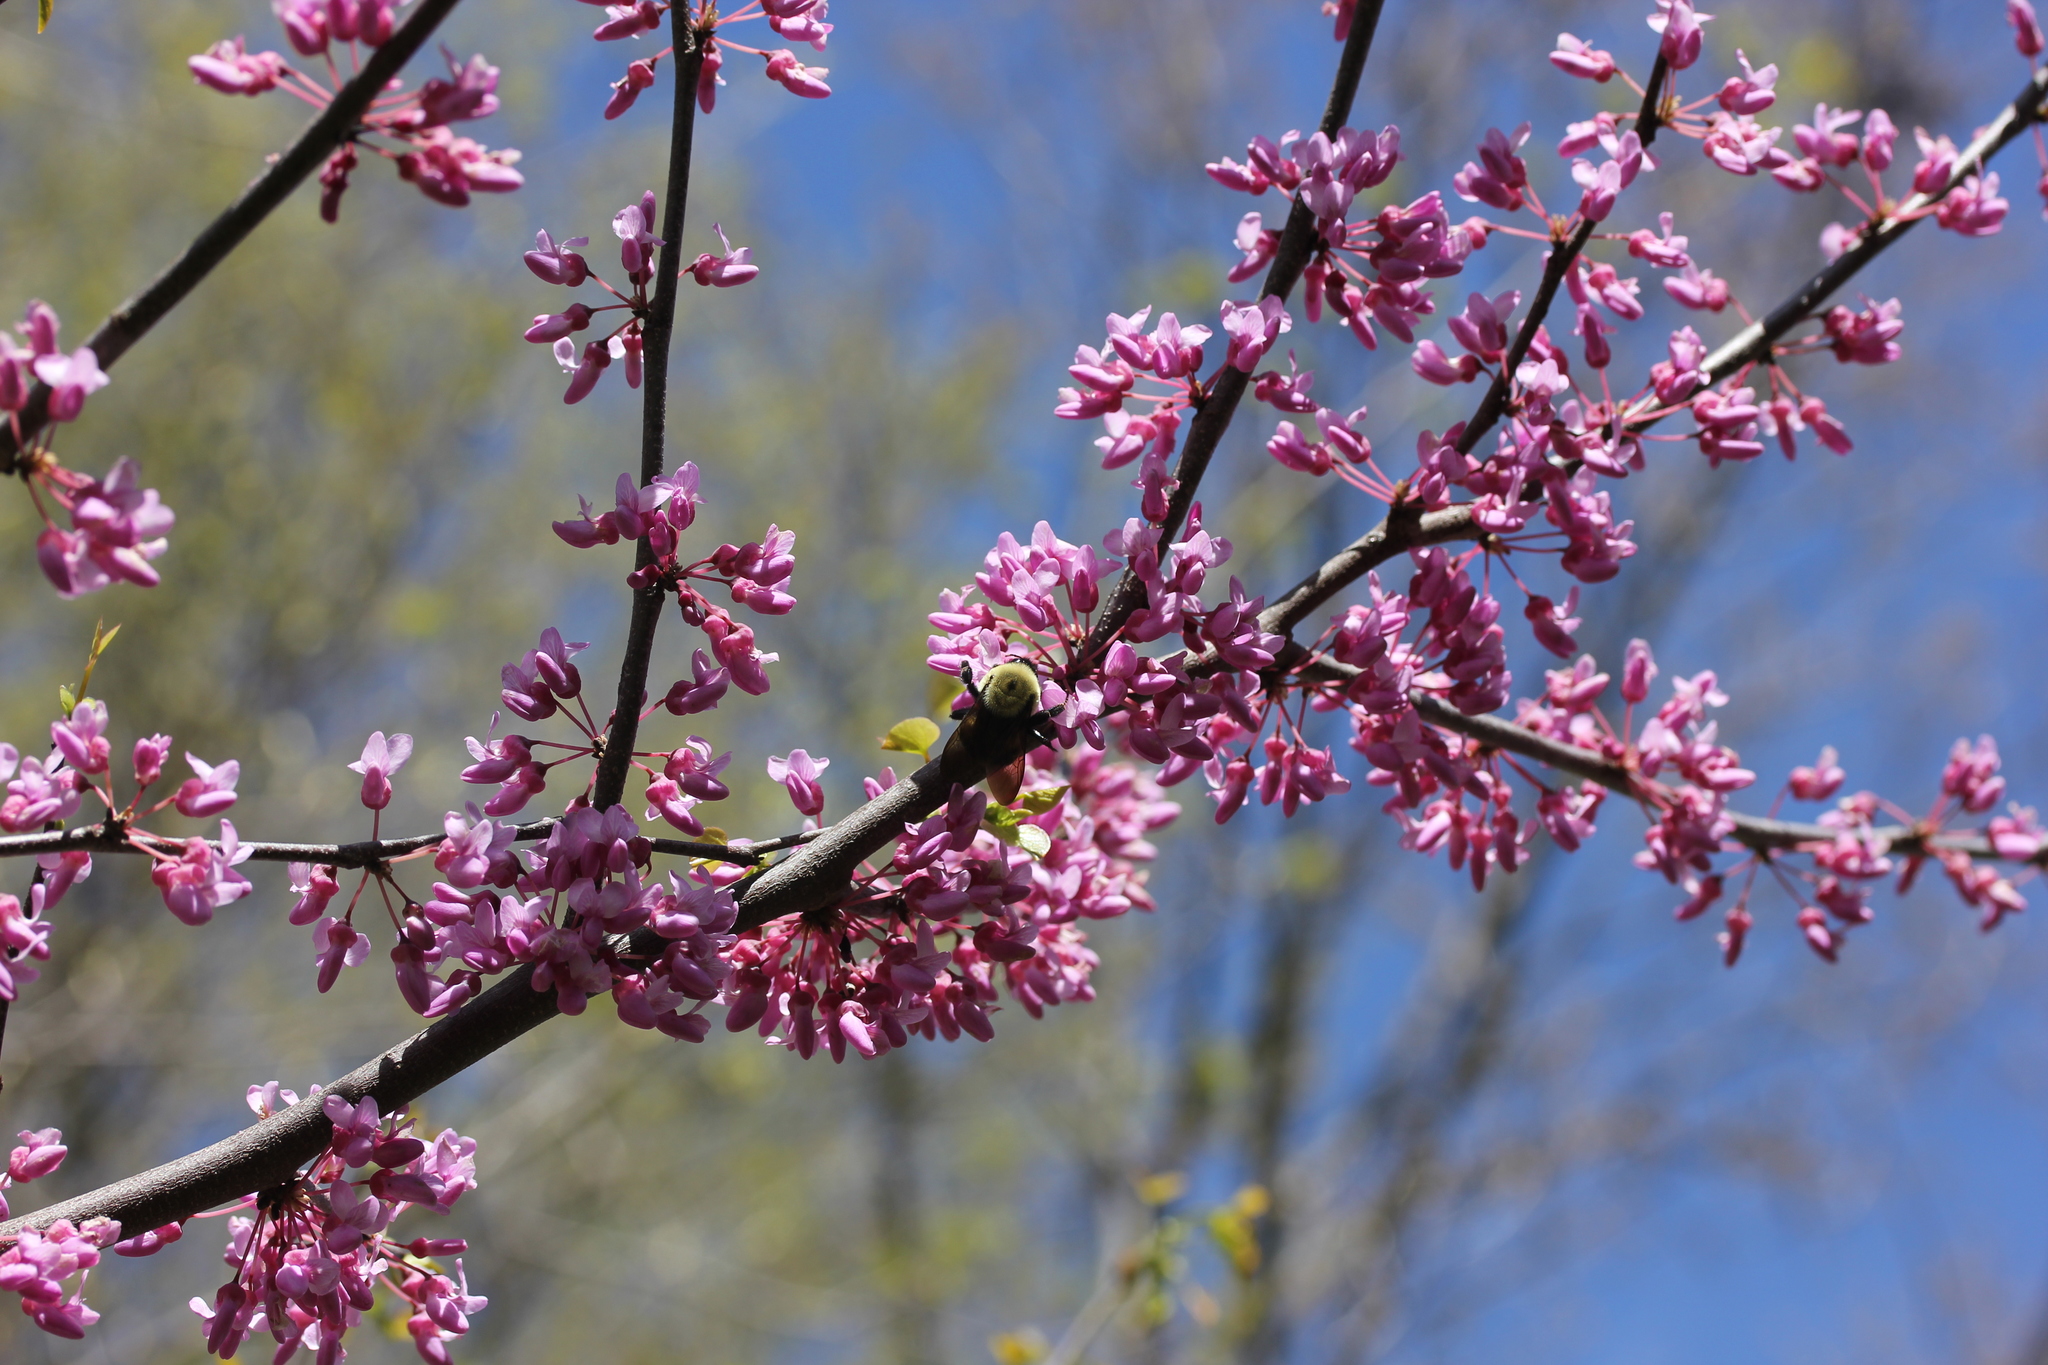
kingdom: Plantae
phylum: Tracheophyta
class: Magnoliopsida
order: Fabales
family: Fabaceae
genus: Cercis
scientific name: Cercis canadensis
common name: Eastern redbud
